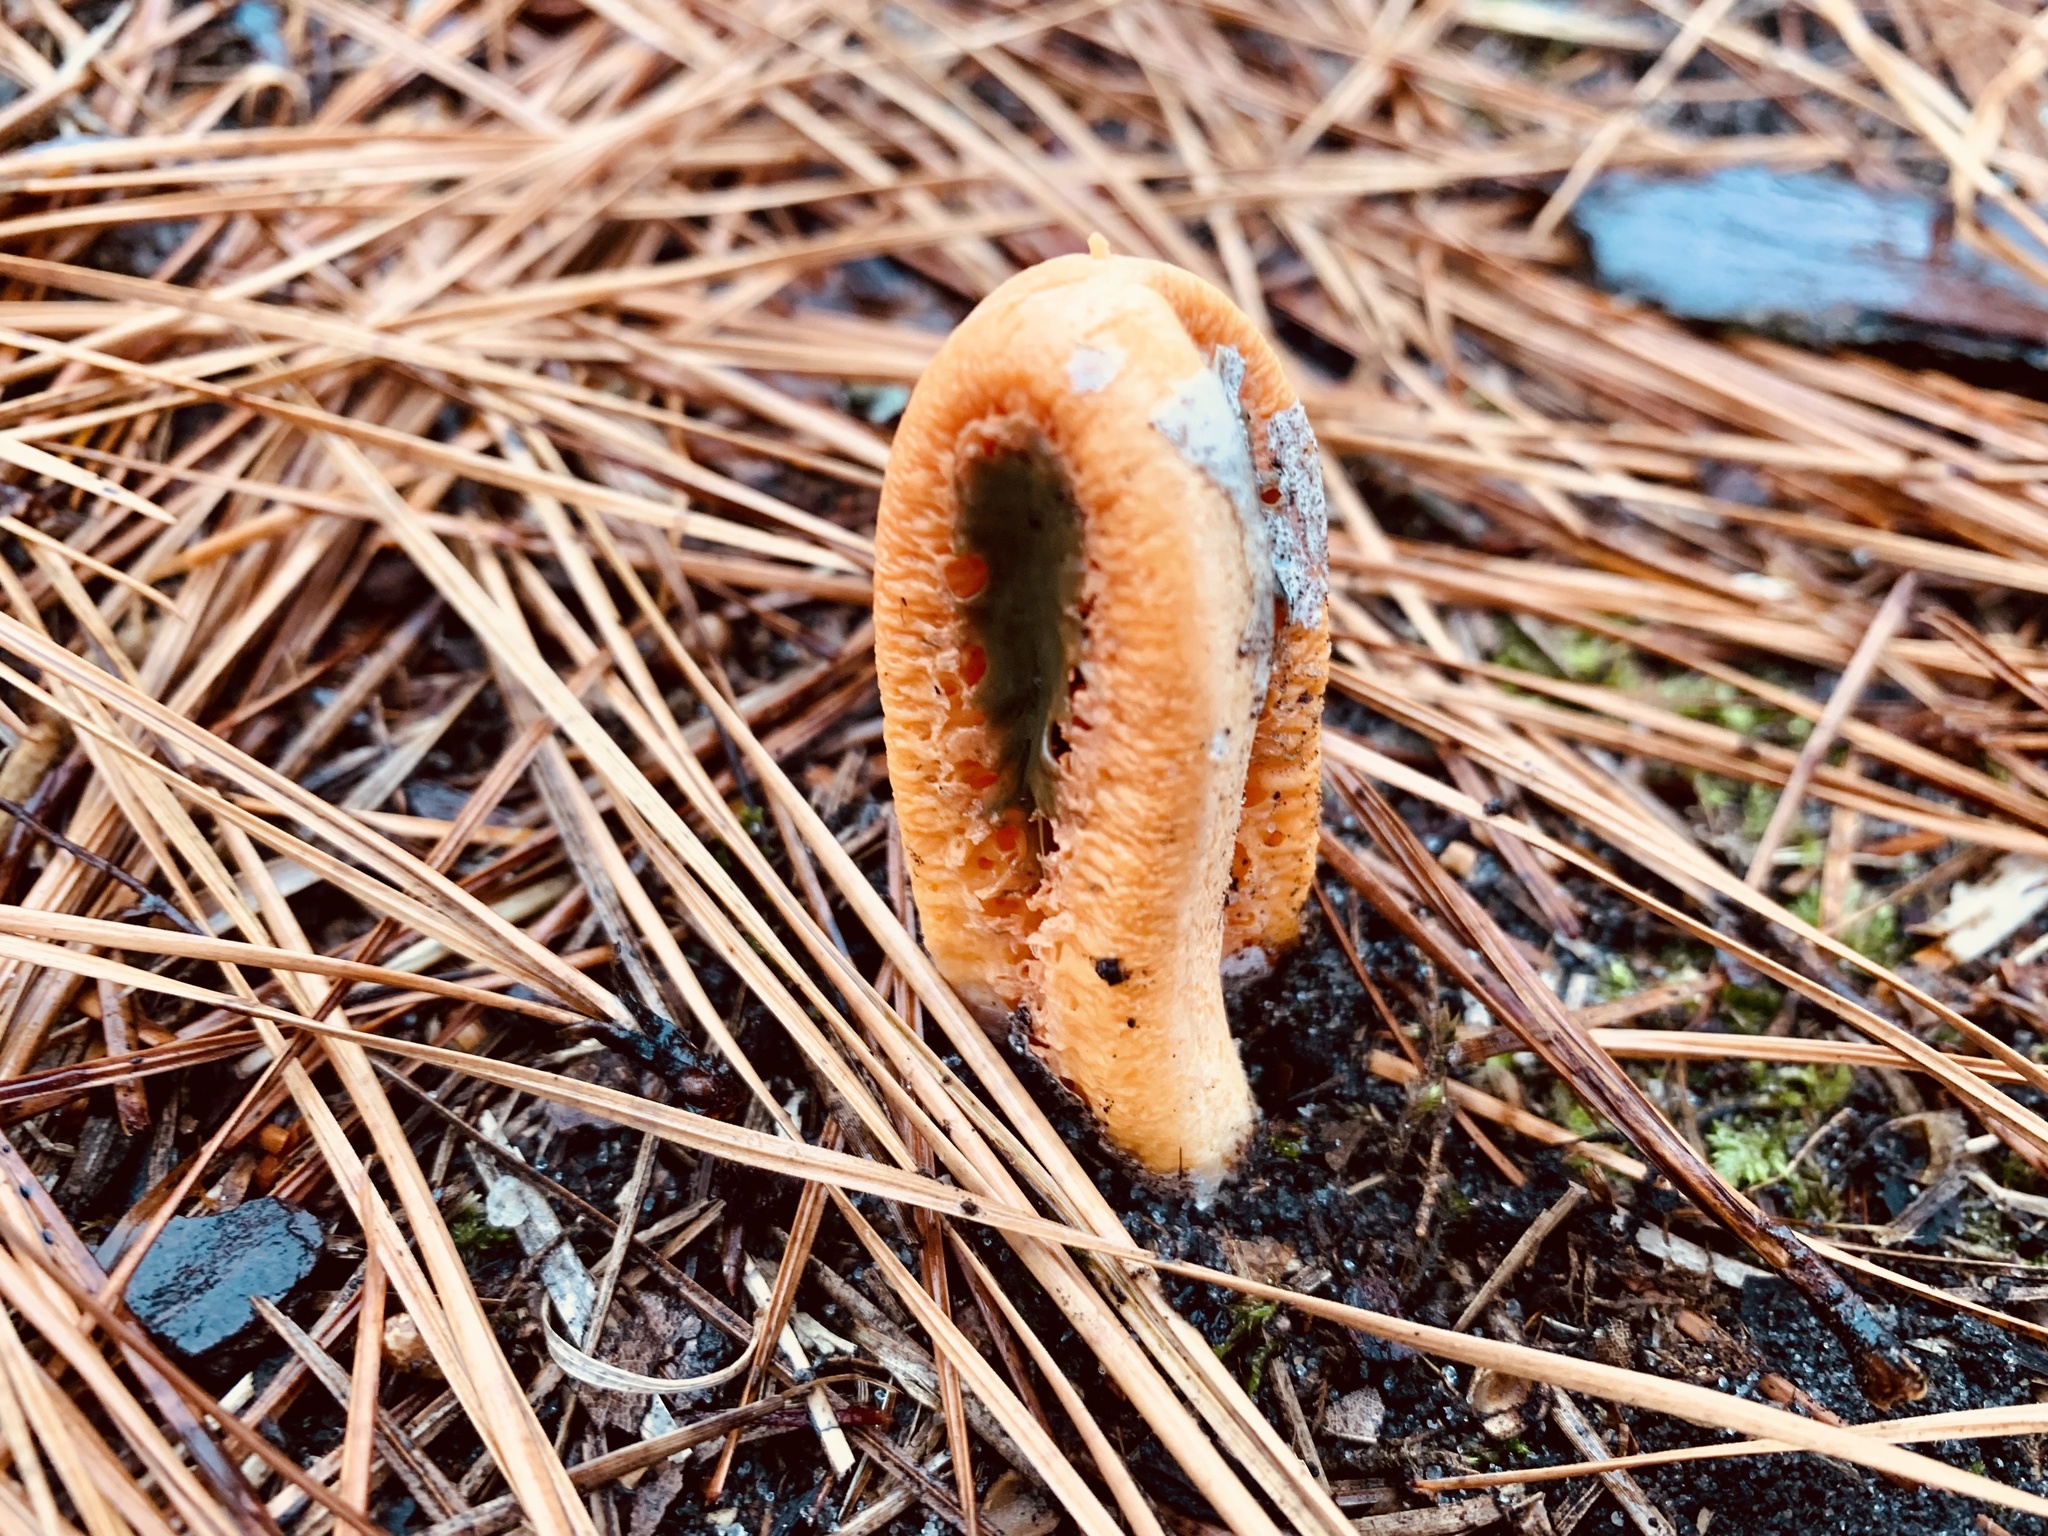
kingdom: Fungi
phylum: Basidiomycota
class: Agaricomycetes
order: Phallales
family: Phallaceae
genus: Clathrus
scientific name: Clathrus columnatus
